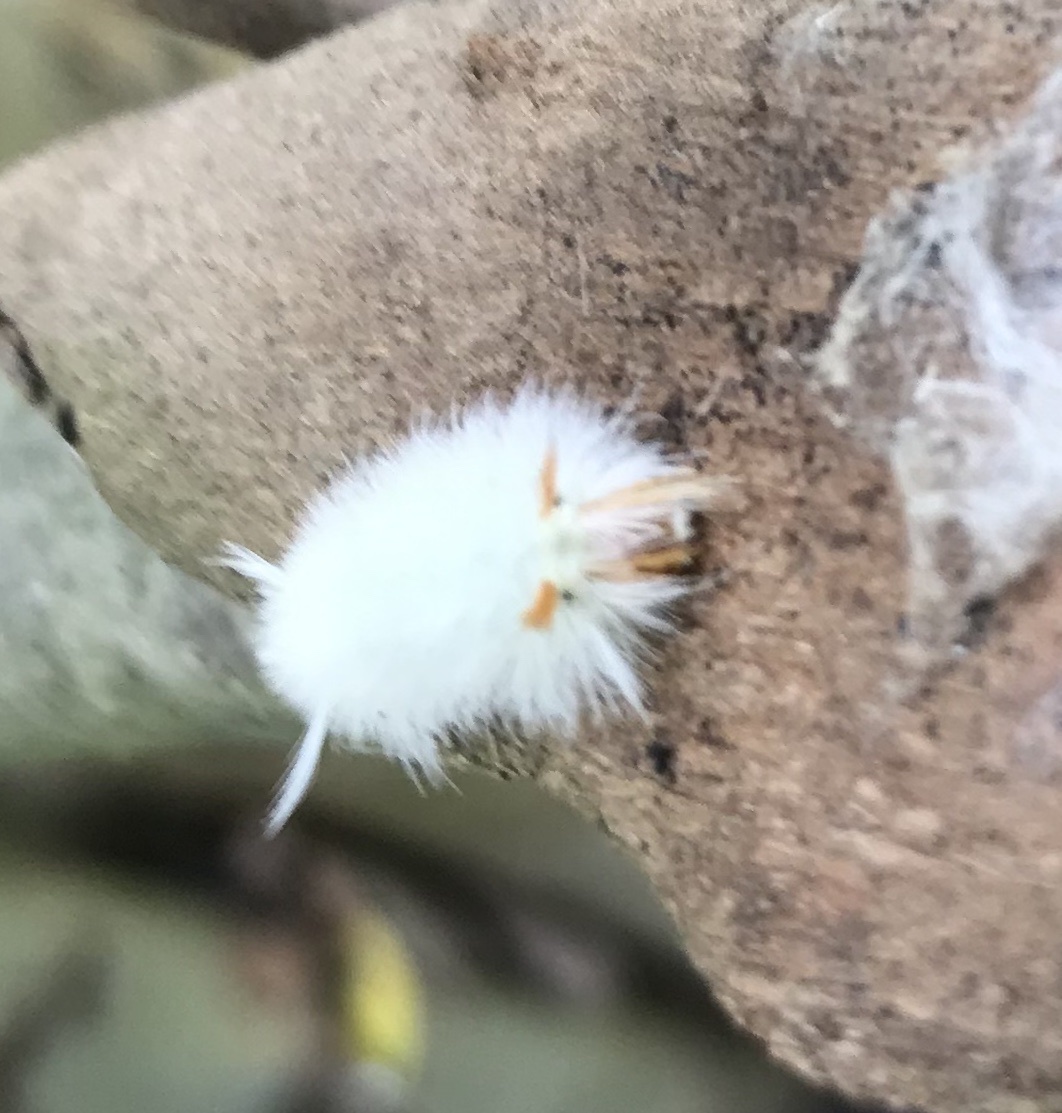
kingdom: Animalia
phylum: Arthropoda
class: Insecta
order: Lepidoptera
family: Erebidae
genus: Halysidota
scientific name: Halysidota harrisii
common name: Sycamore tussock moth
